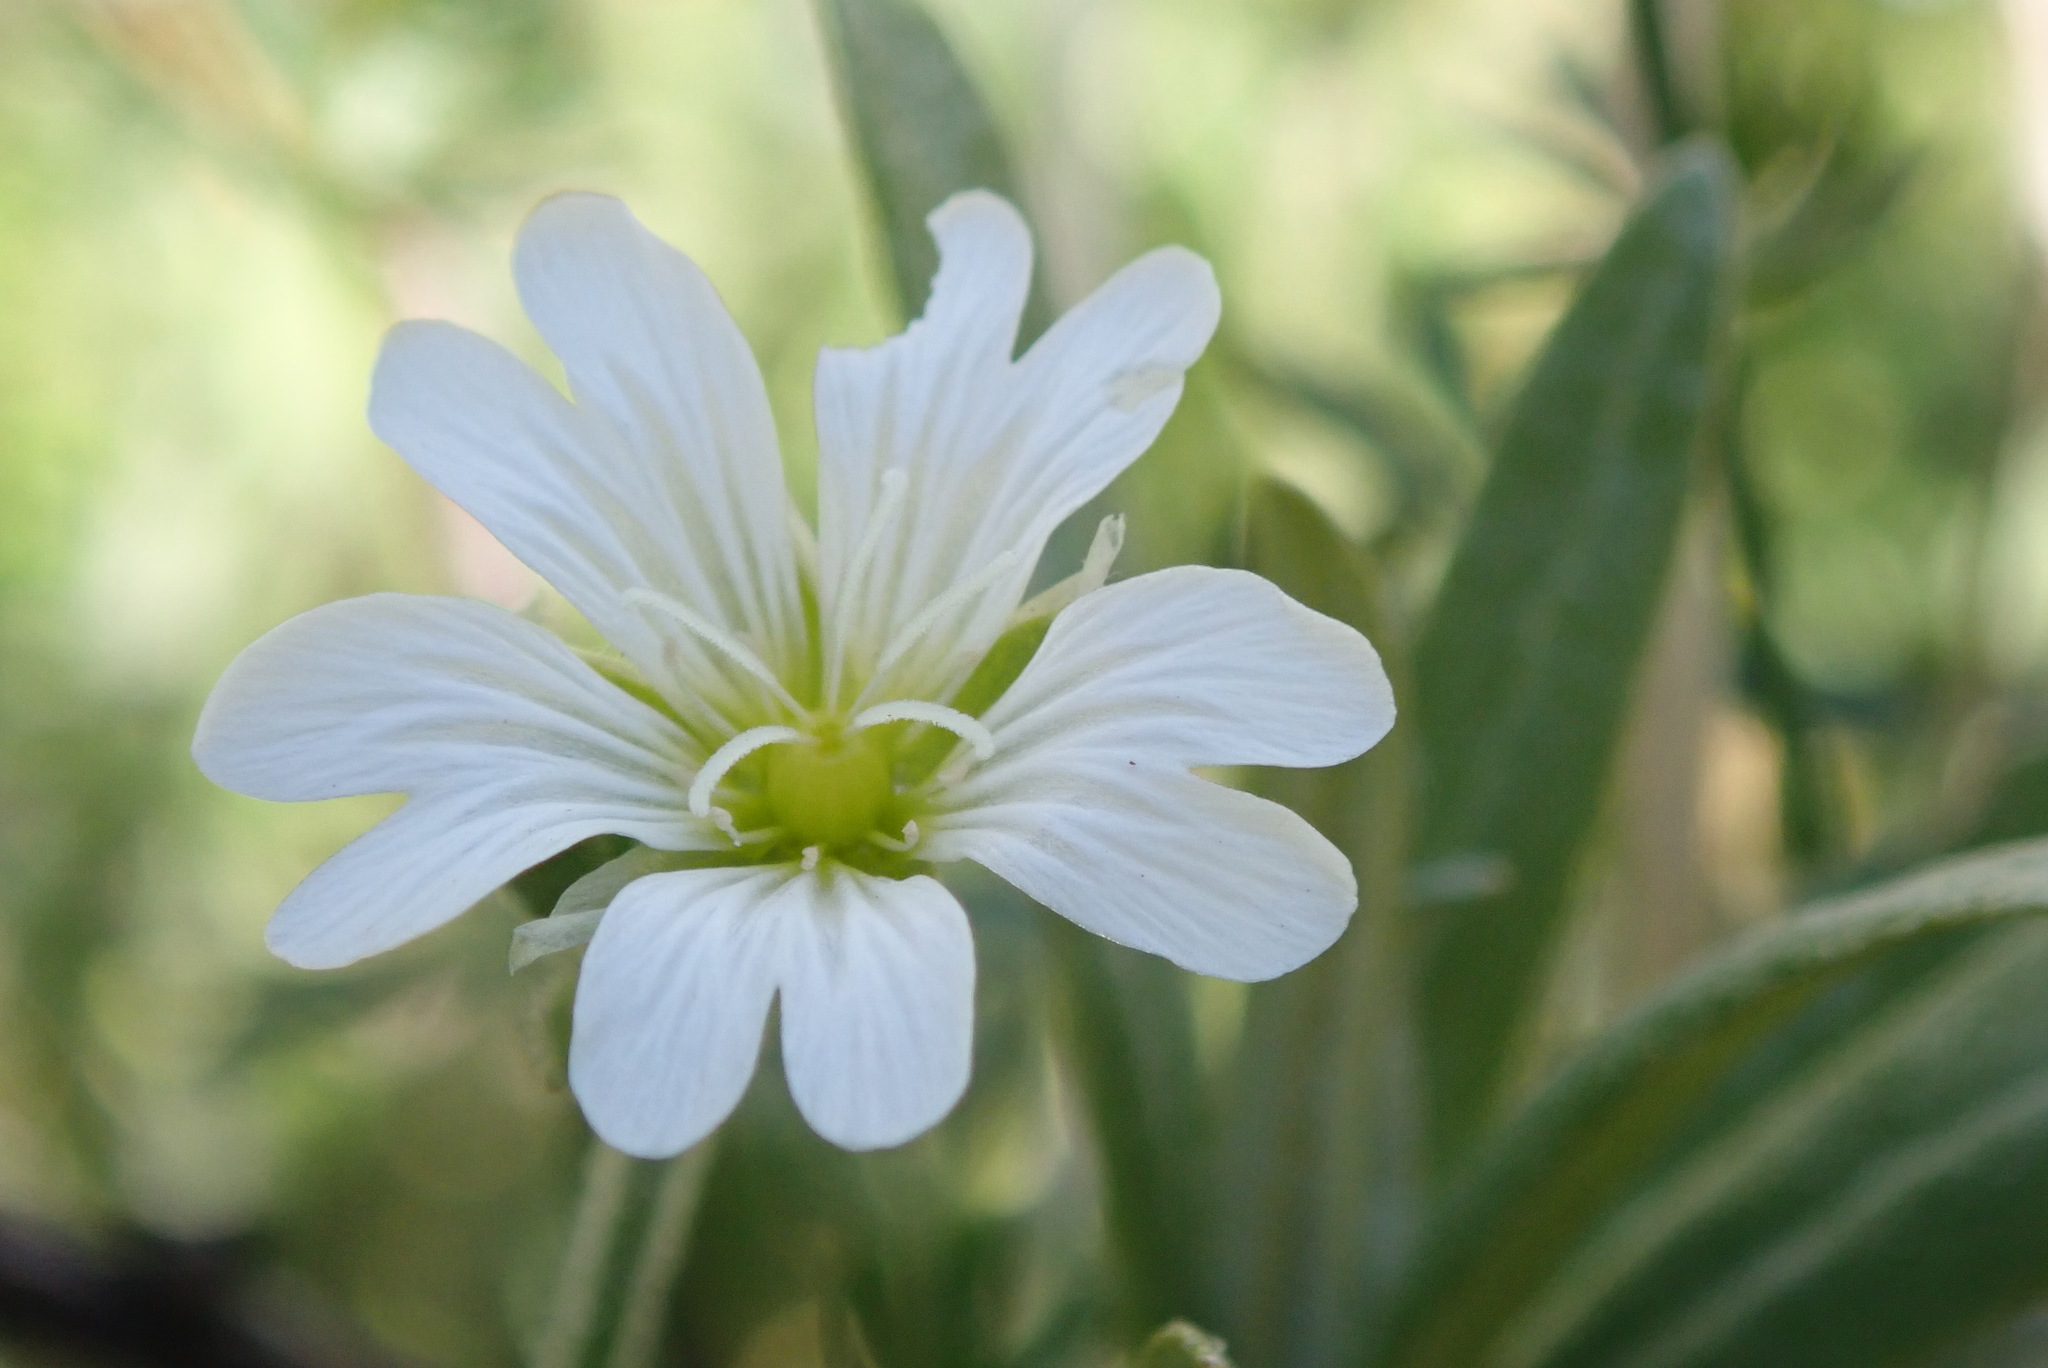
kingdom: Plantae
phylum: Tracheophyta
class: Magnoliopsida
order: Caryophyllales
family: Caryophyllaceae
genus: Cerastium
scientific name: Cerastium arvense
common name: Field mouse-ear
